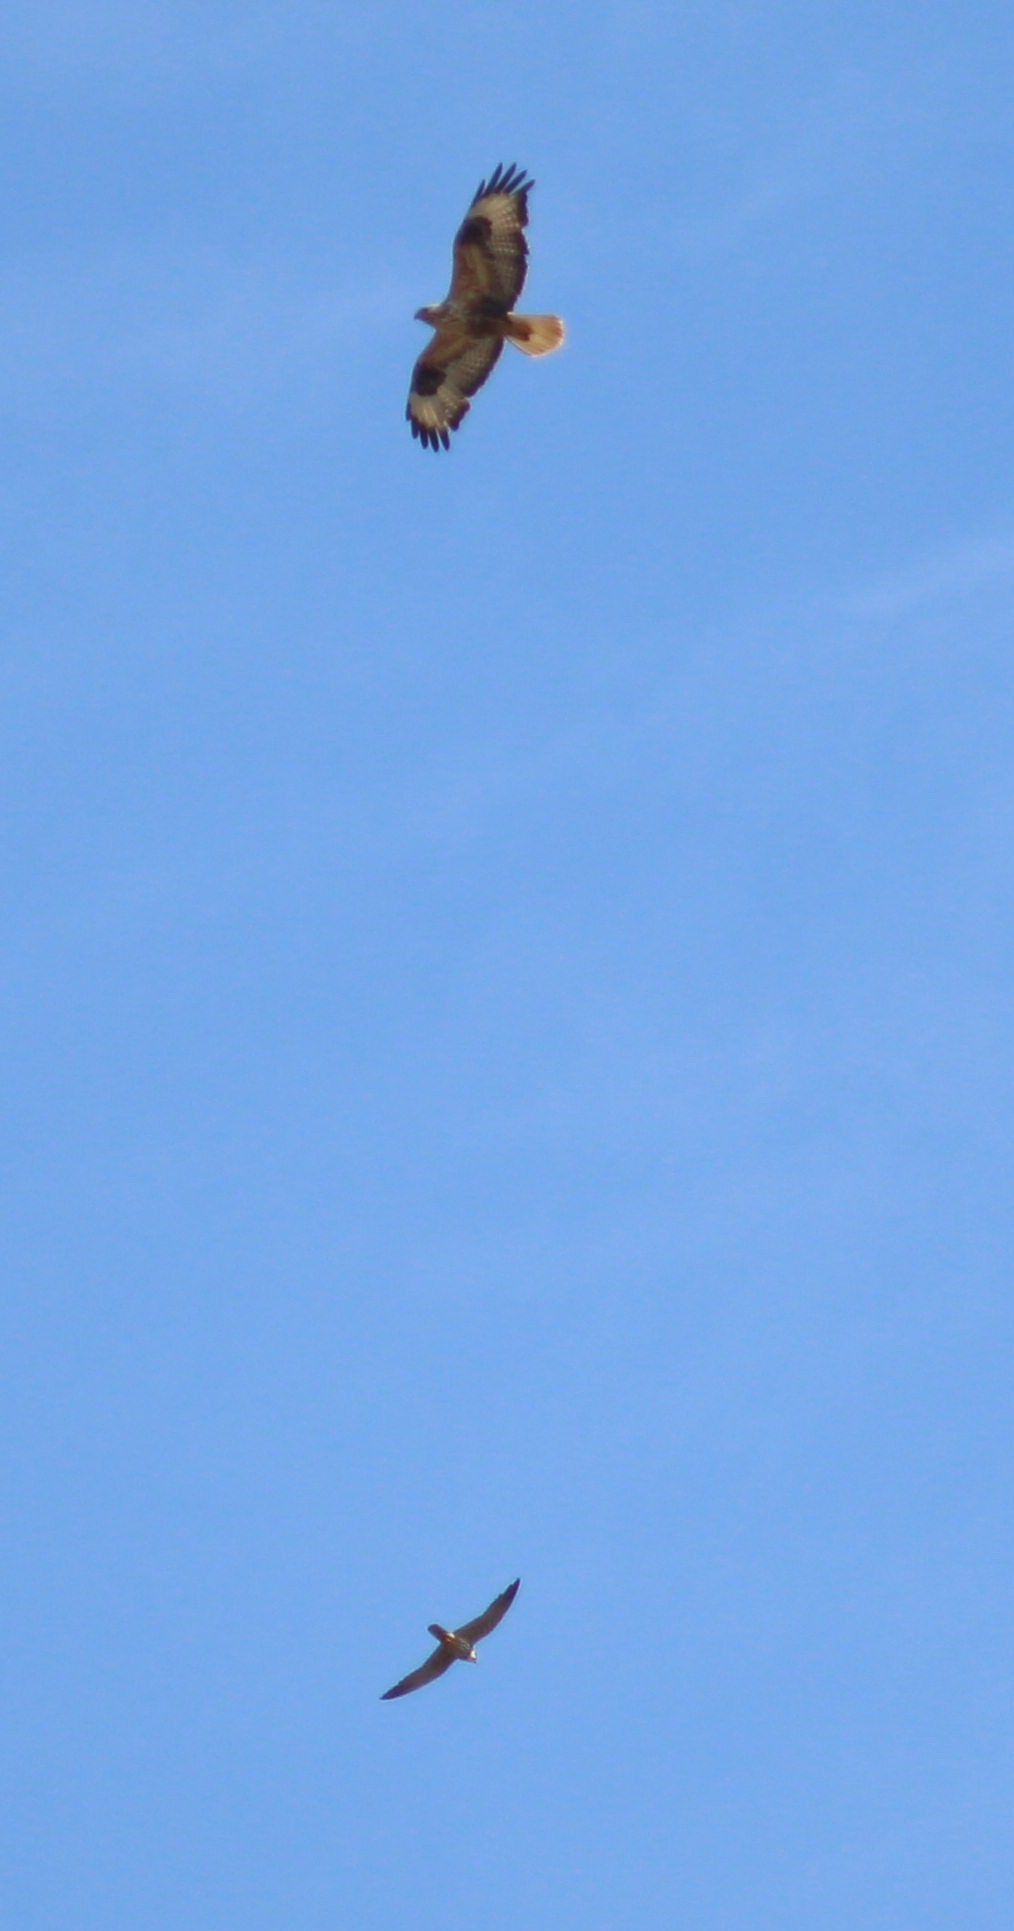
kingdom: Animalia
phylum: Chordata
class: Aves
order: Accipitriformes
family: Accipitridae
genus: Buteo
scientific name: Buteo rufinus
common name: Long-legged buzzard
